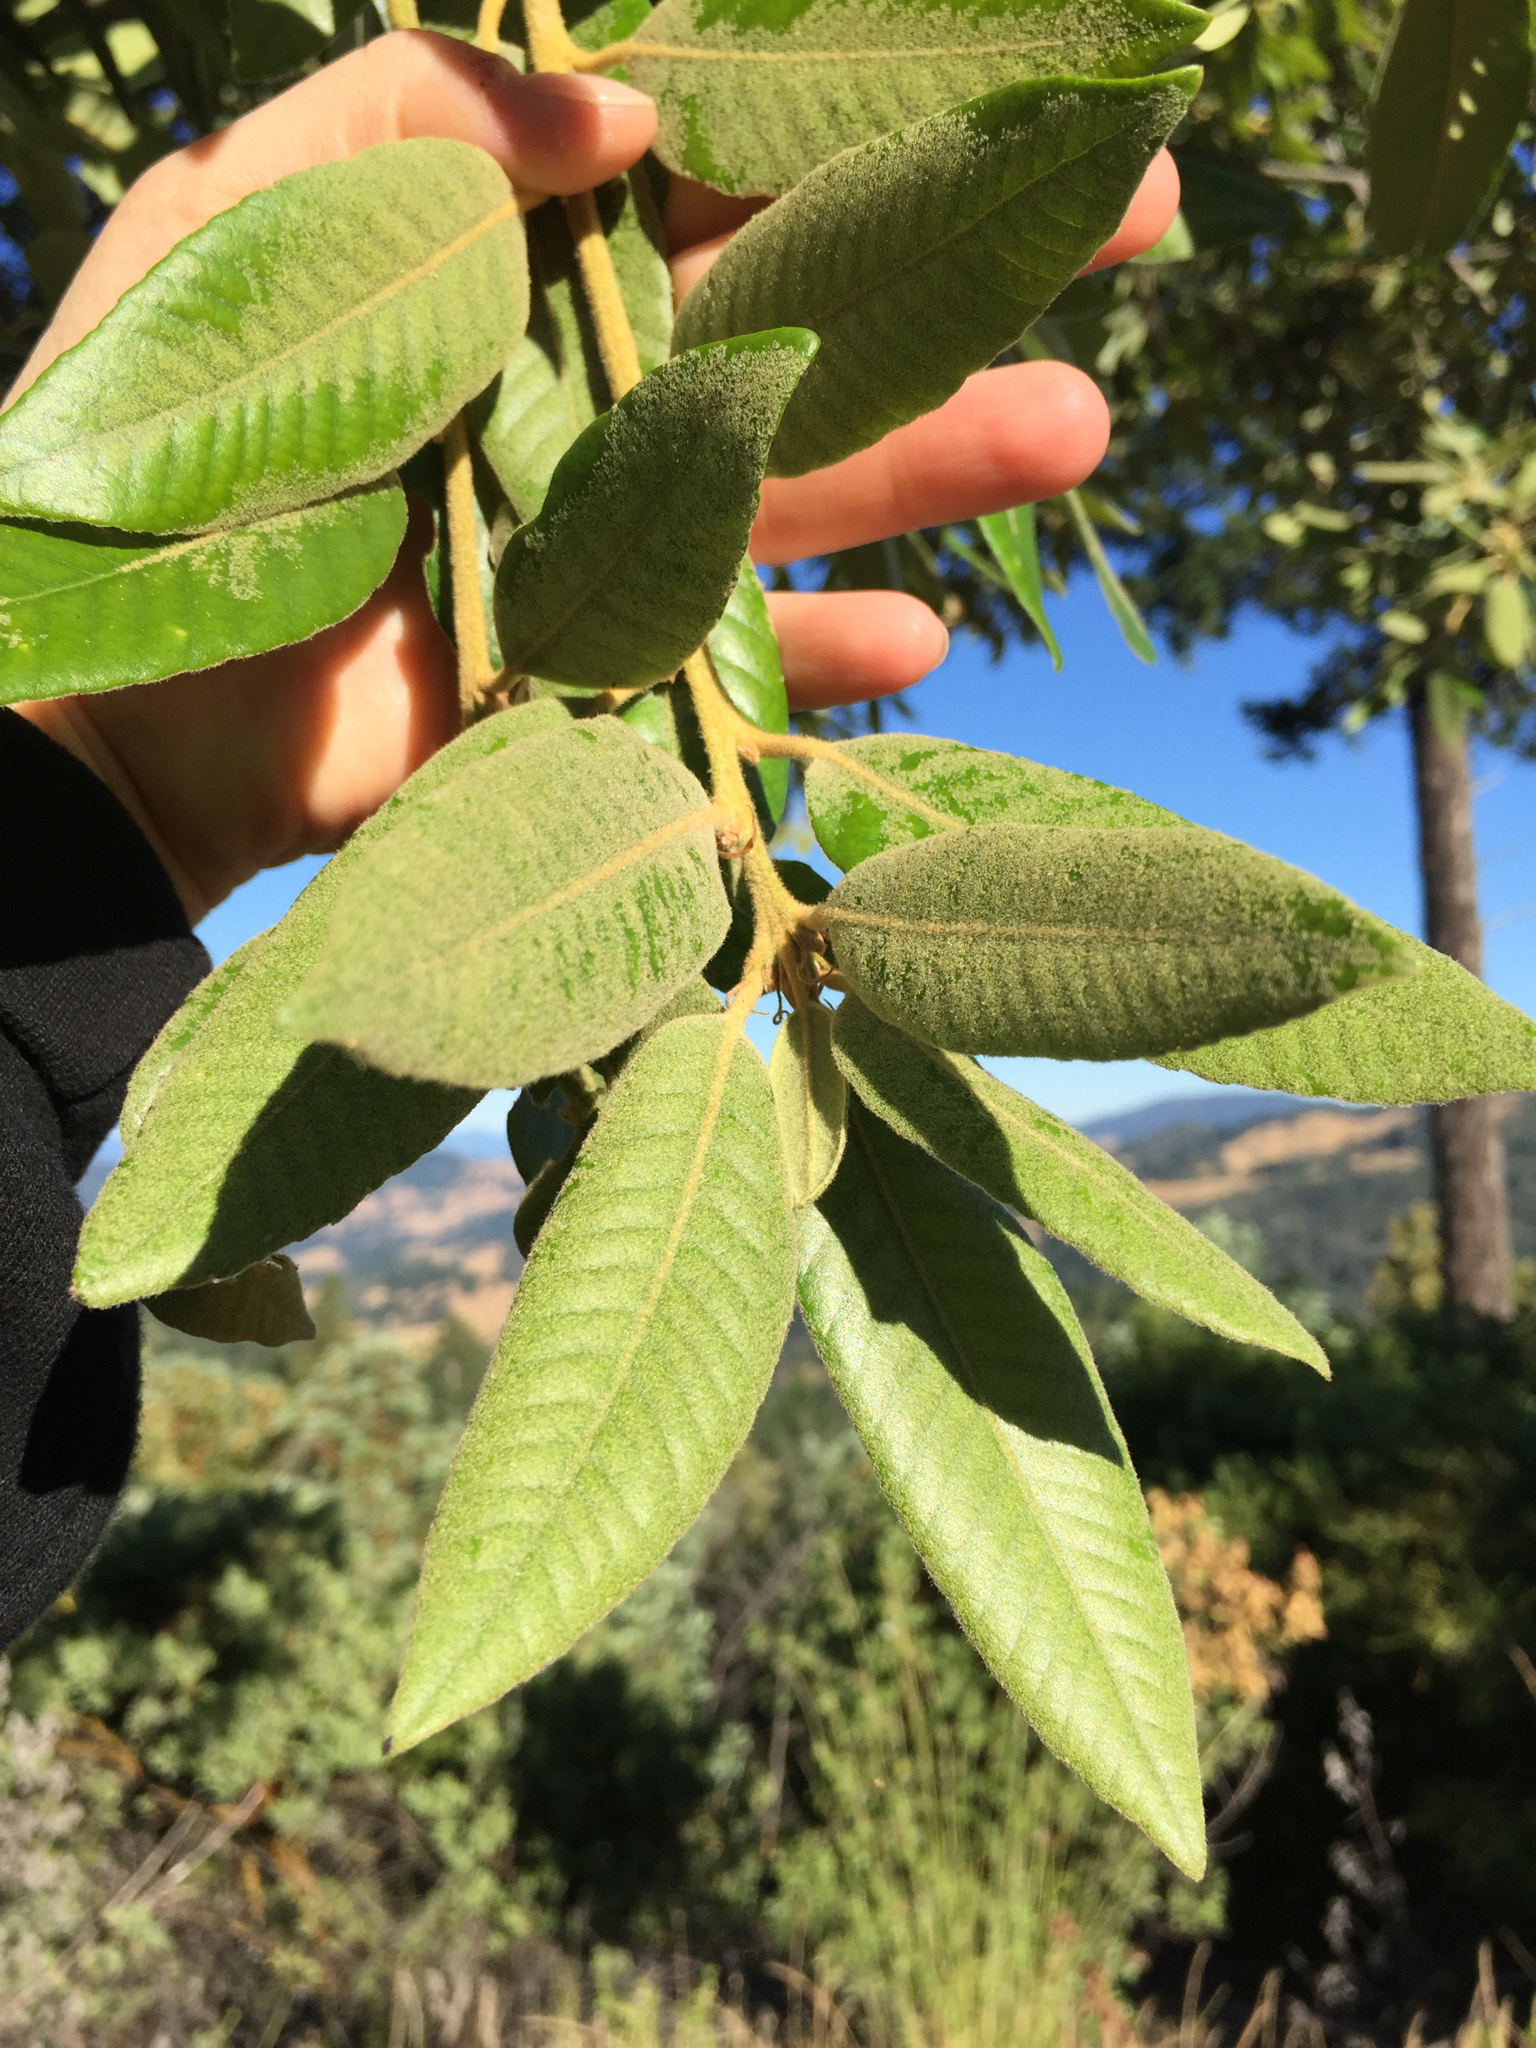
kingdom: Plantae
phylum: Tracheophyta
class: Magnoliopsida
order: Fagales
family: Fagaceae
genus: Notholithocarpus
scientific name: Notholithocarpus densiflorus
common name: Tan bark oak
